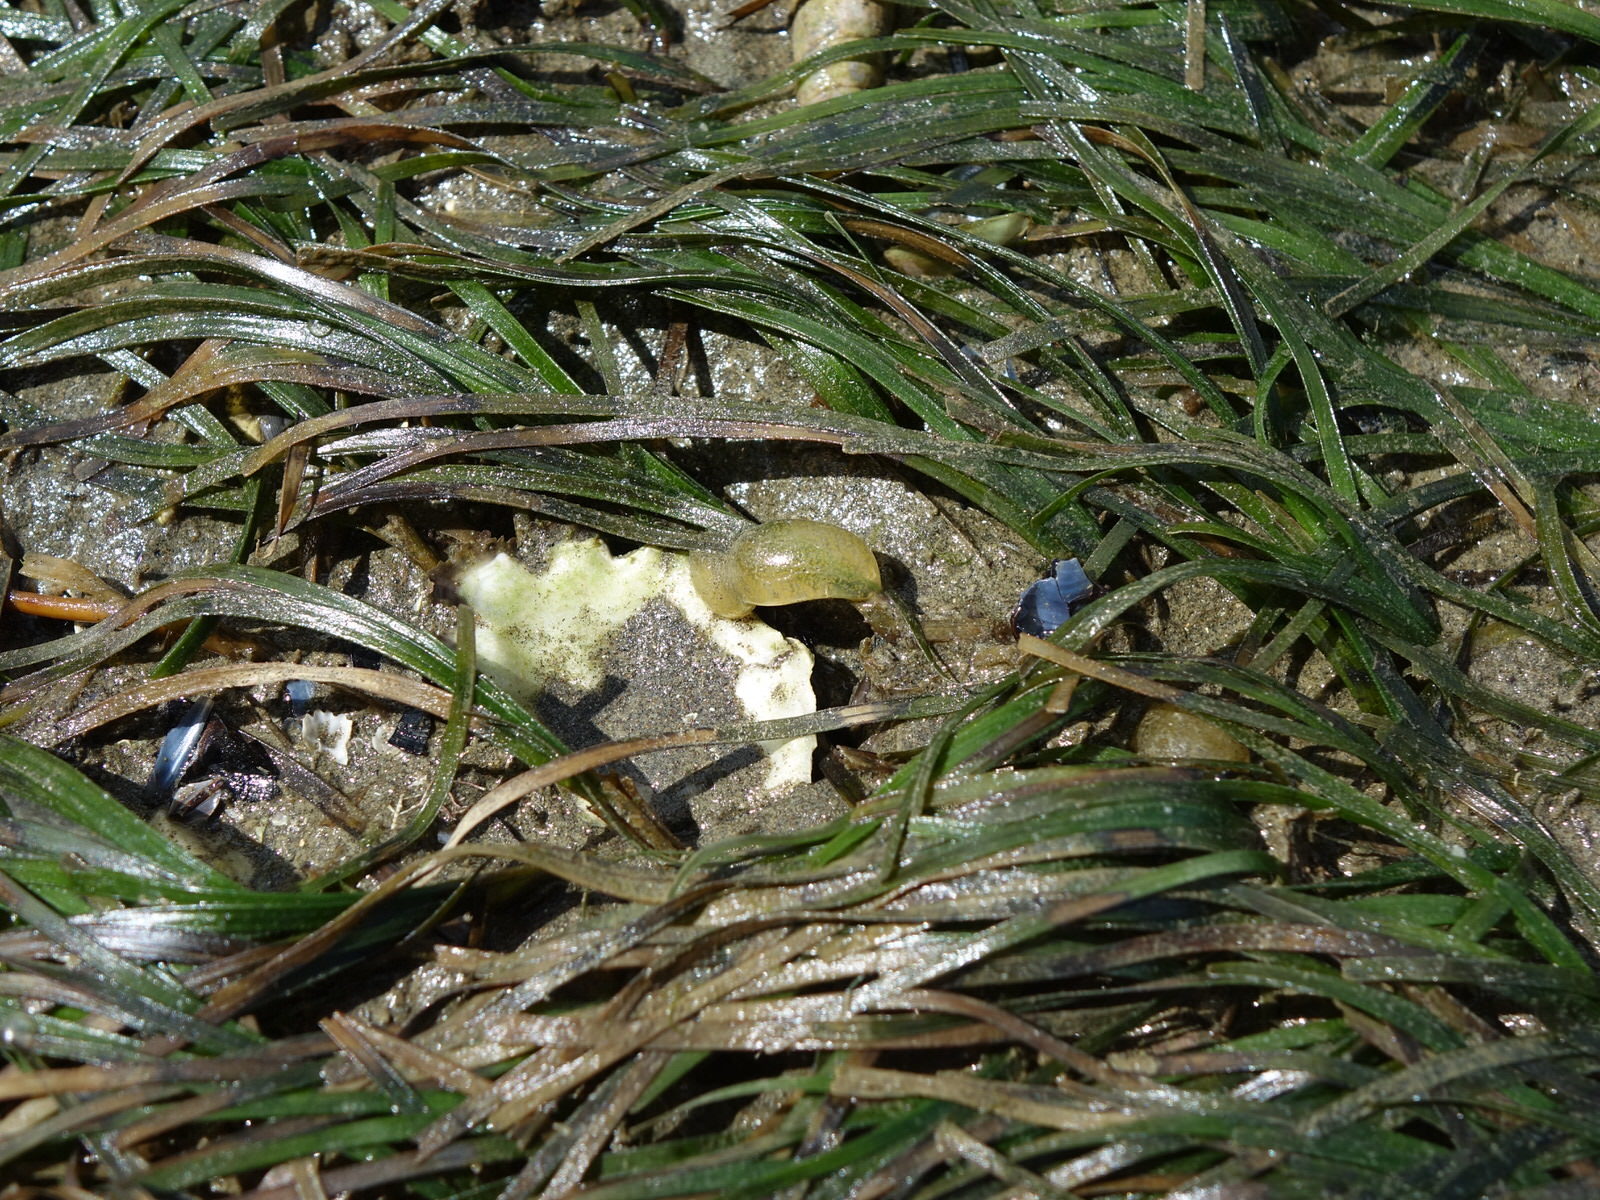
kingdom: Animalia
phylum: Mollusca
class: Gastropoda
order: Cephalaspidea
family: Haminoeidae
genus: Papawera
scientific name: Papawera zelandiae
